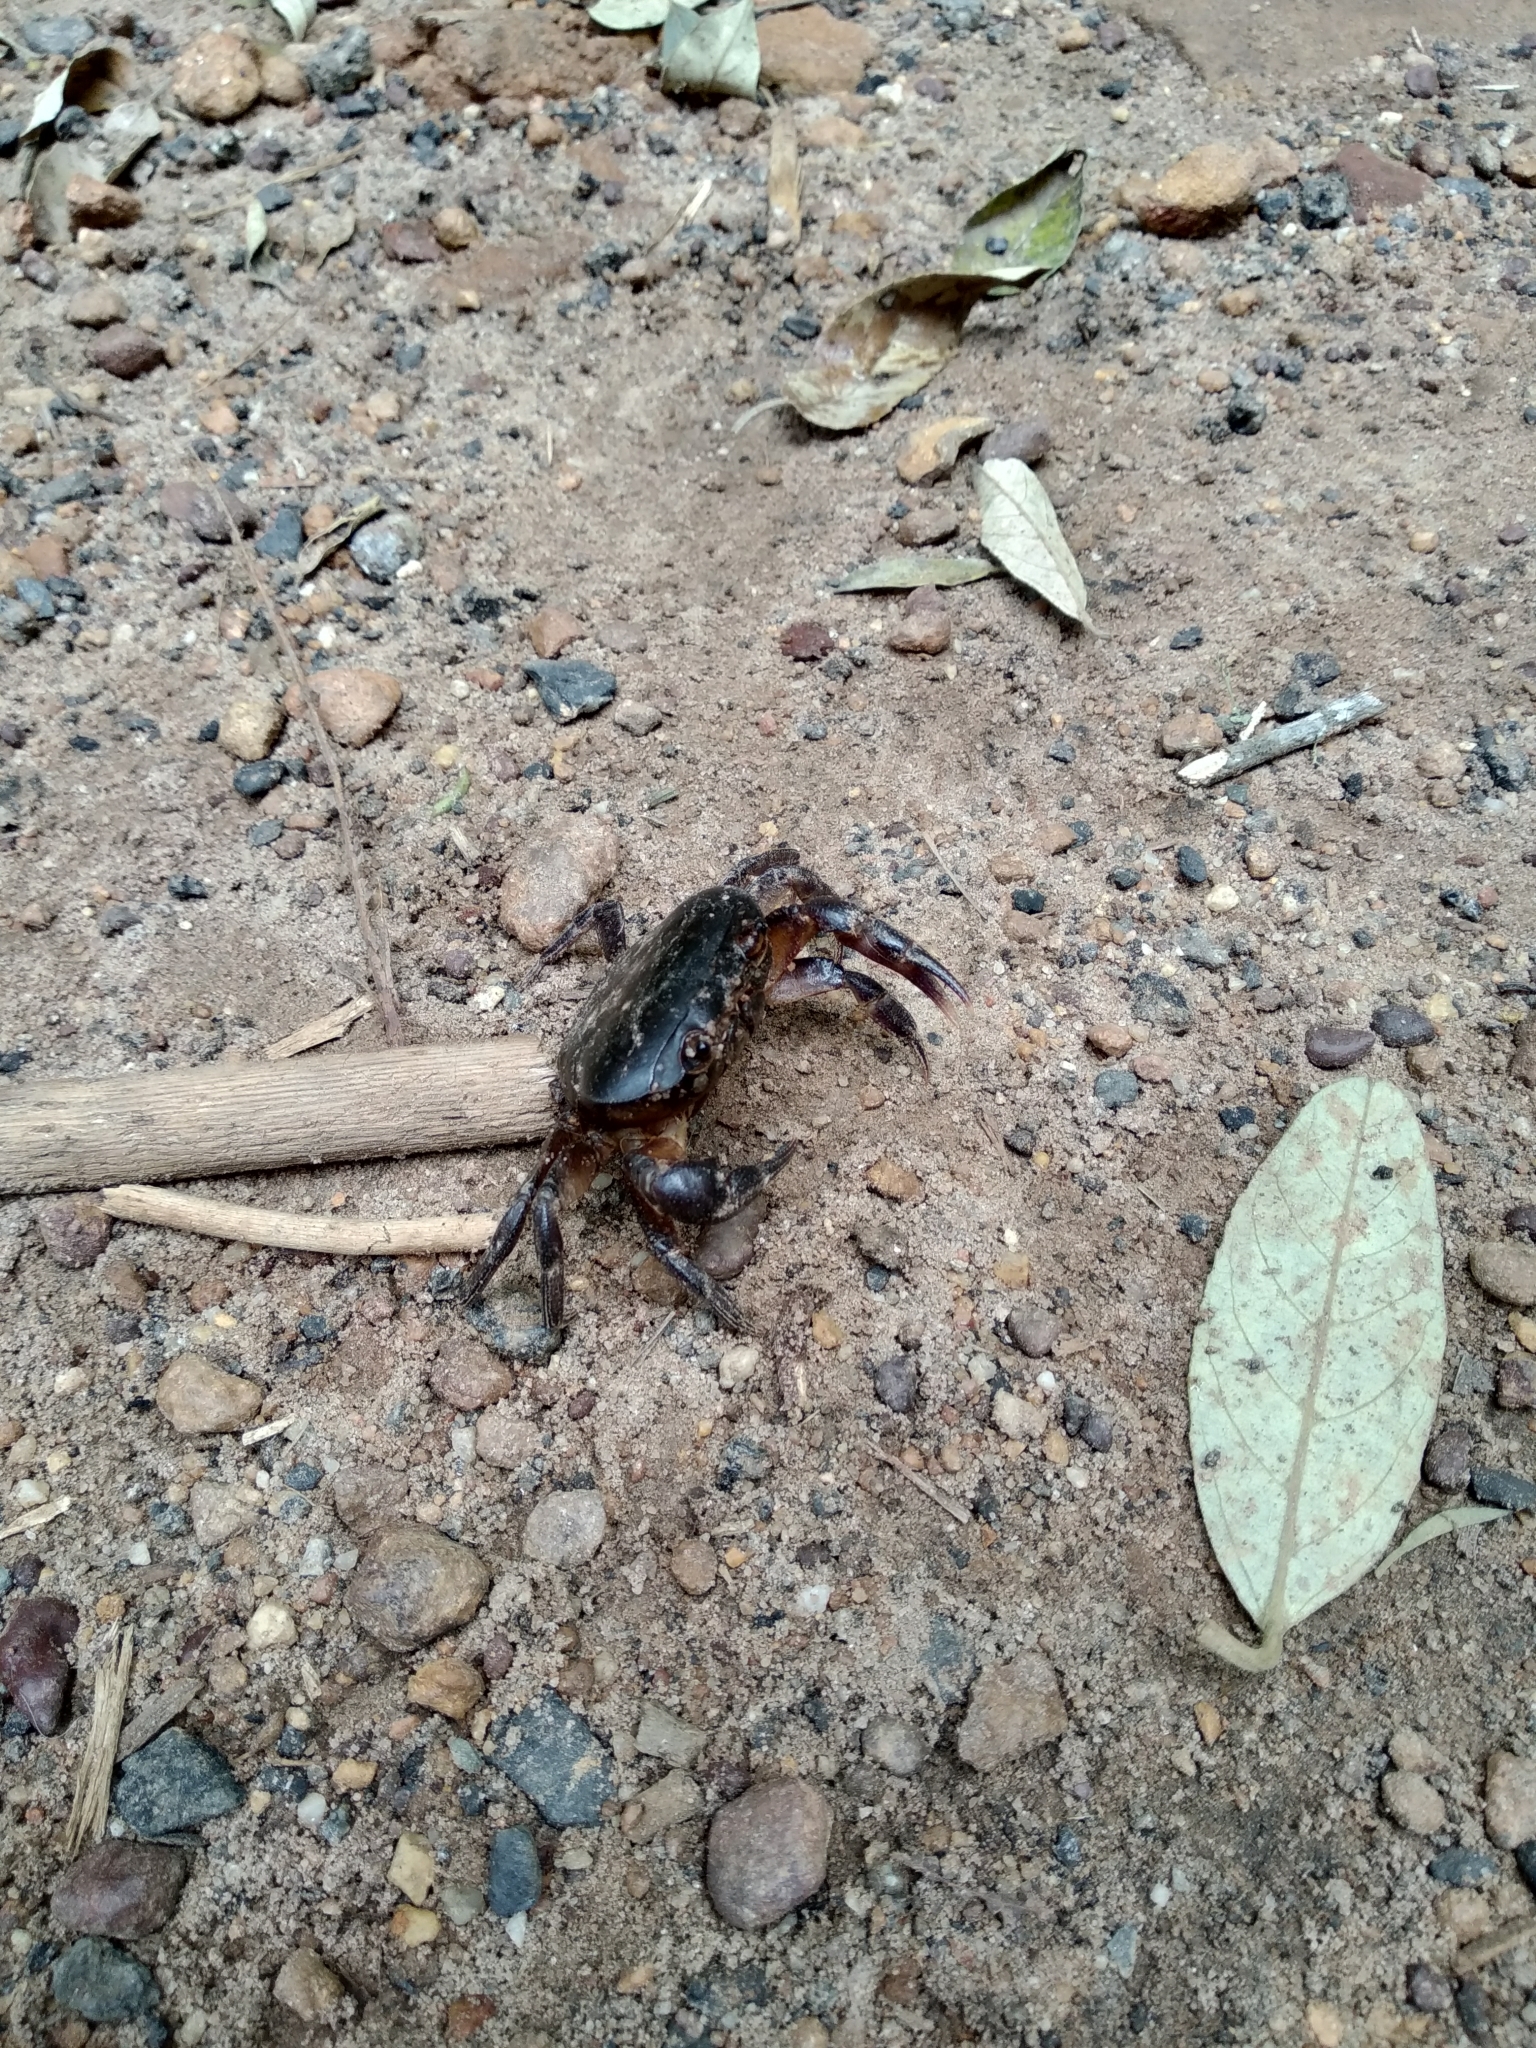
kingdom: Animalia
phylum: Arthropoda
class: Malacostraca
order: Decapoda
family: Potamonautidae
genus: Potamonautes
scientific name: Potamonautes parvicorpus
